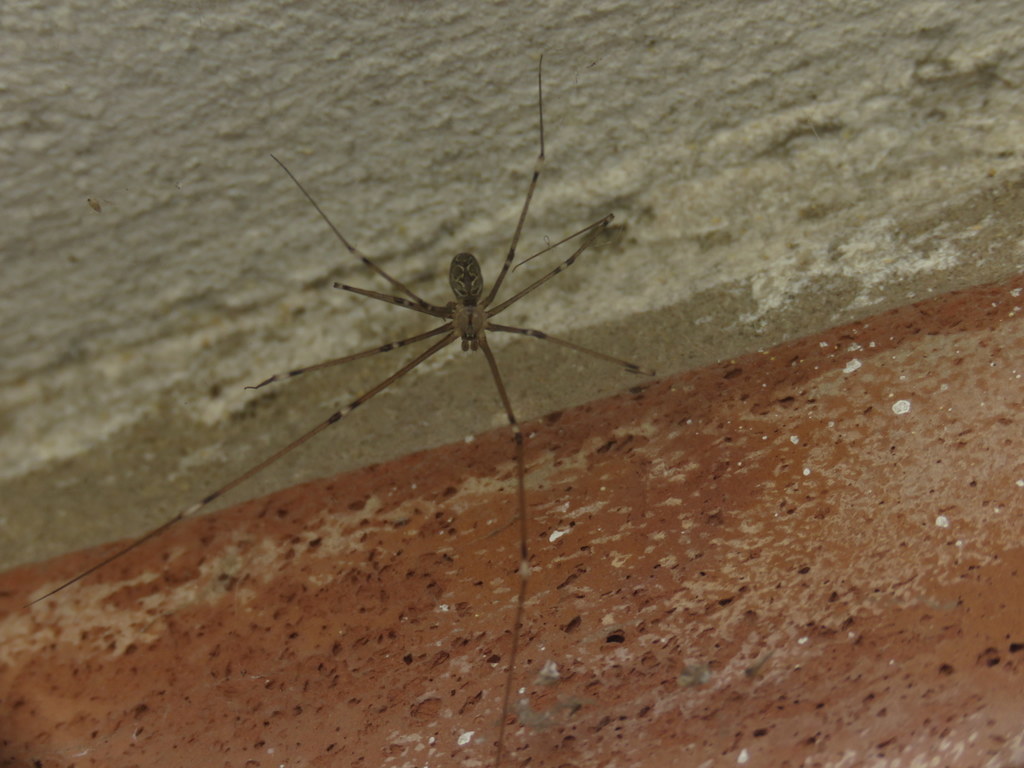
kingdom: Animalia
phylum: Arthropoda
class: Arachnida
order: Araneae
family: Pholcidae
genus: Holocnemus
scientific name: Holocnemus pluchei
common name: Marbled cellar spider
